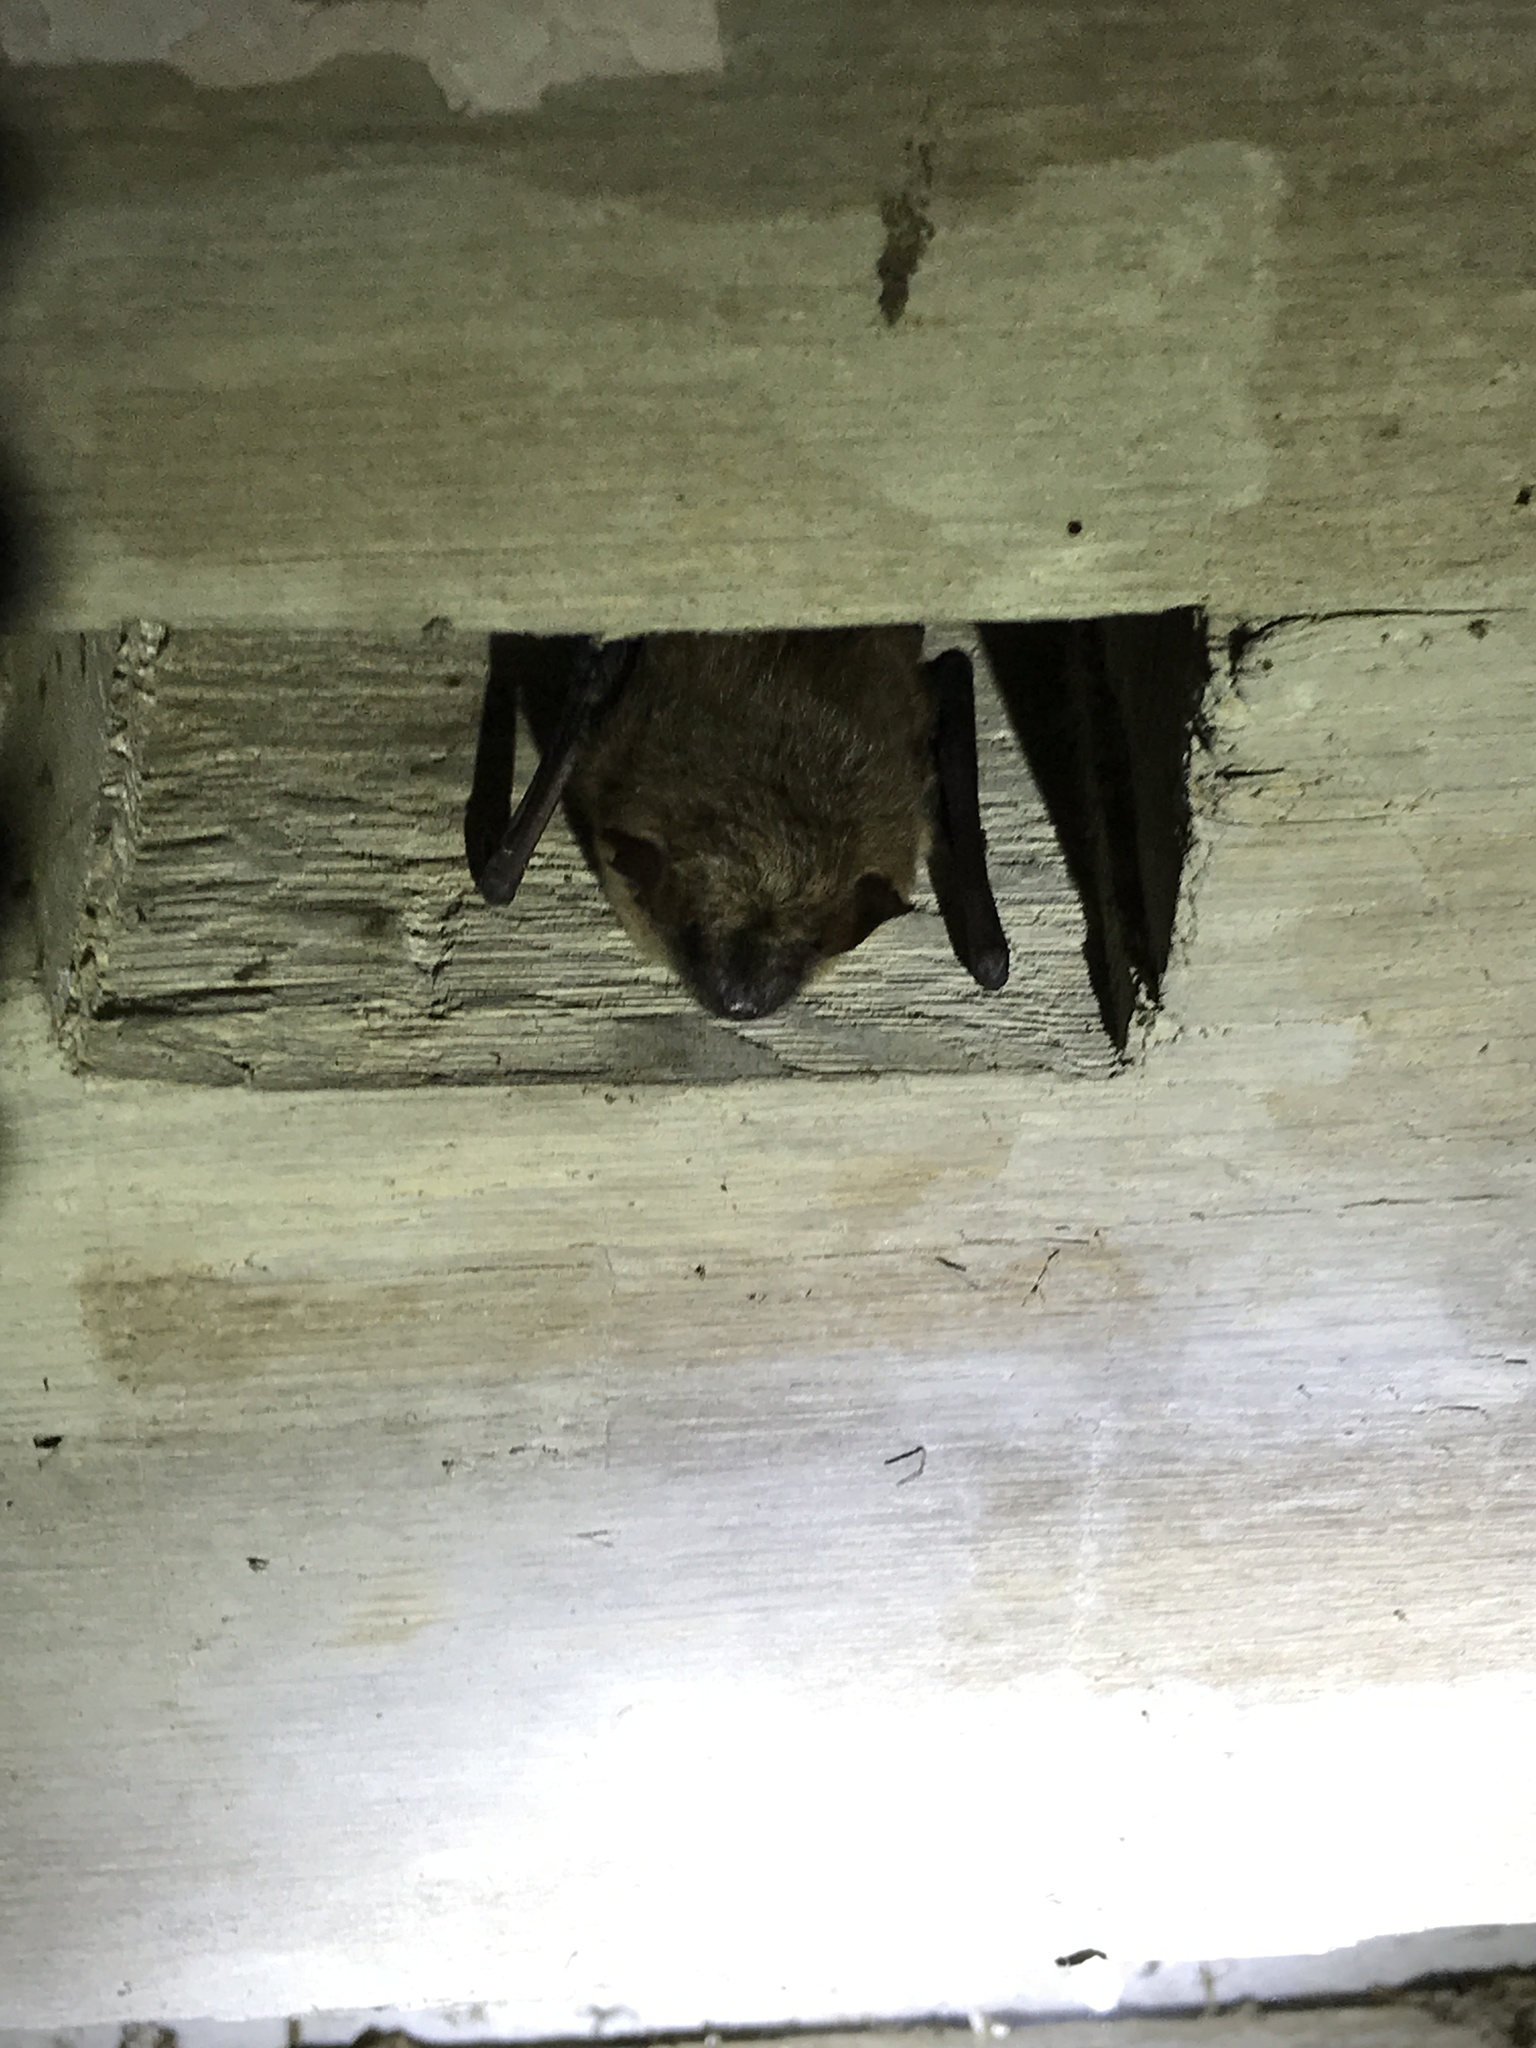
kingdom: Animalia
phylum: Chordata
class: Mammalia
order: Chiroptera
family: Vespertilionidae
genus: Eptesicus
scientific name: Eptesicus fuscus
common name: Big brown bat
